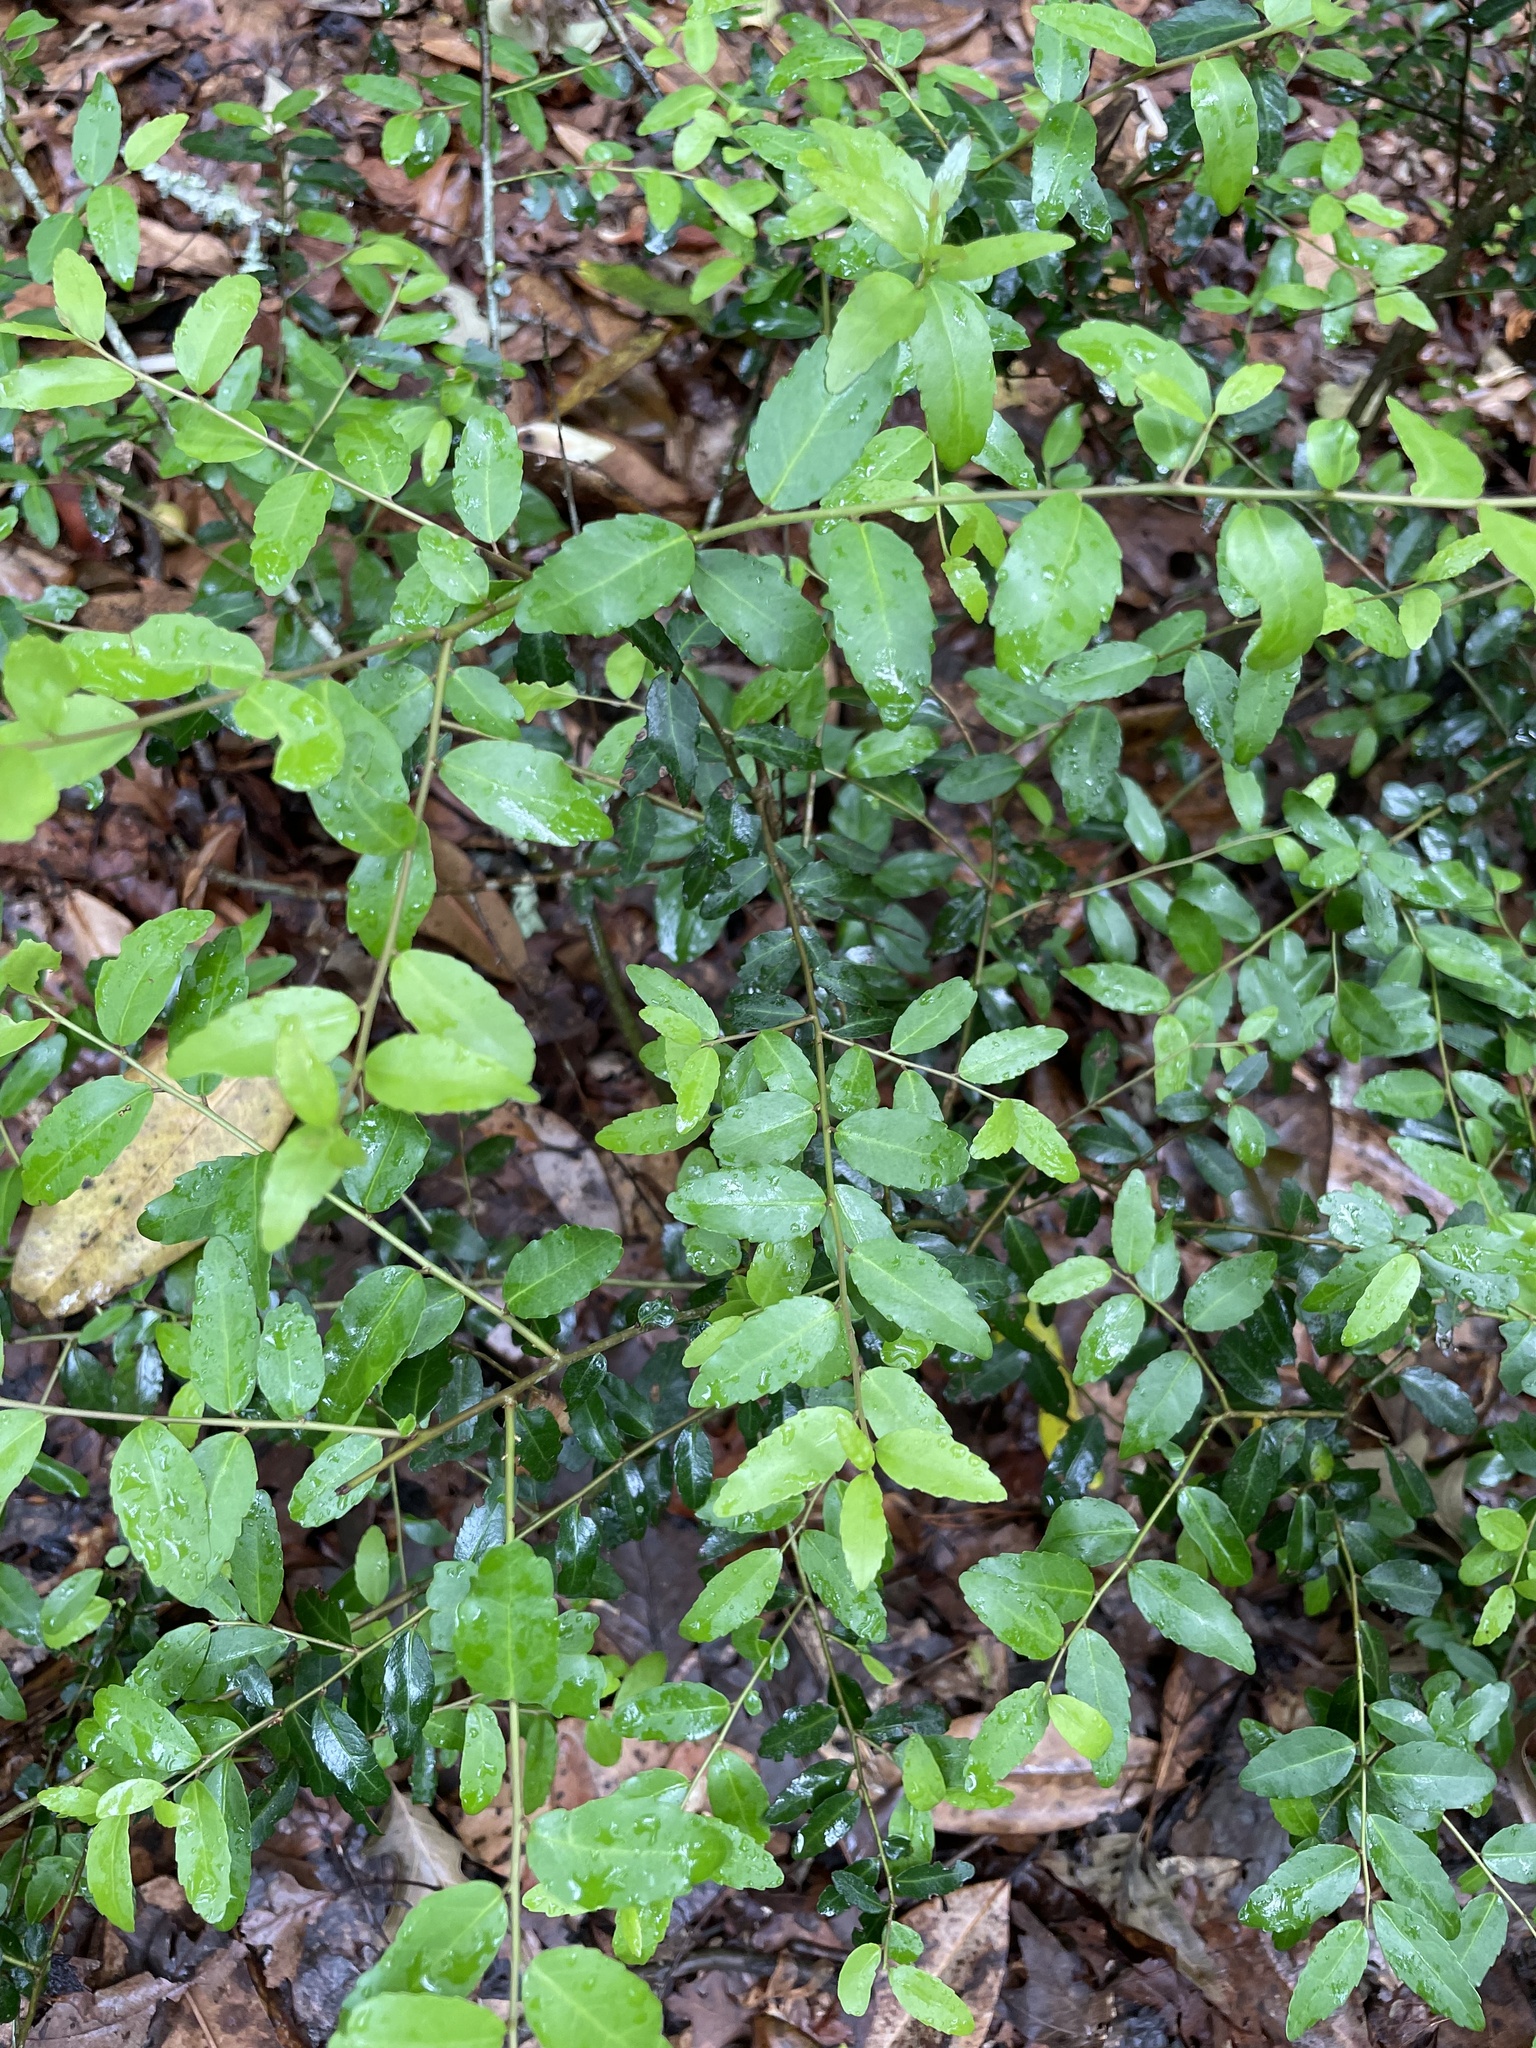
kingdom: Plantae
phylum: Tracheophyta
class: Magnoliopsida
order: Aquifoliales
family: Aquifoliaceae
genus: Ilex
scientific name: Ilex vomitoria
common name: Yaupon holly
